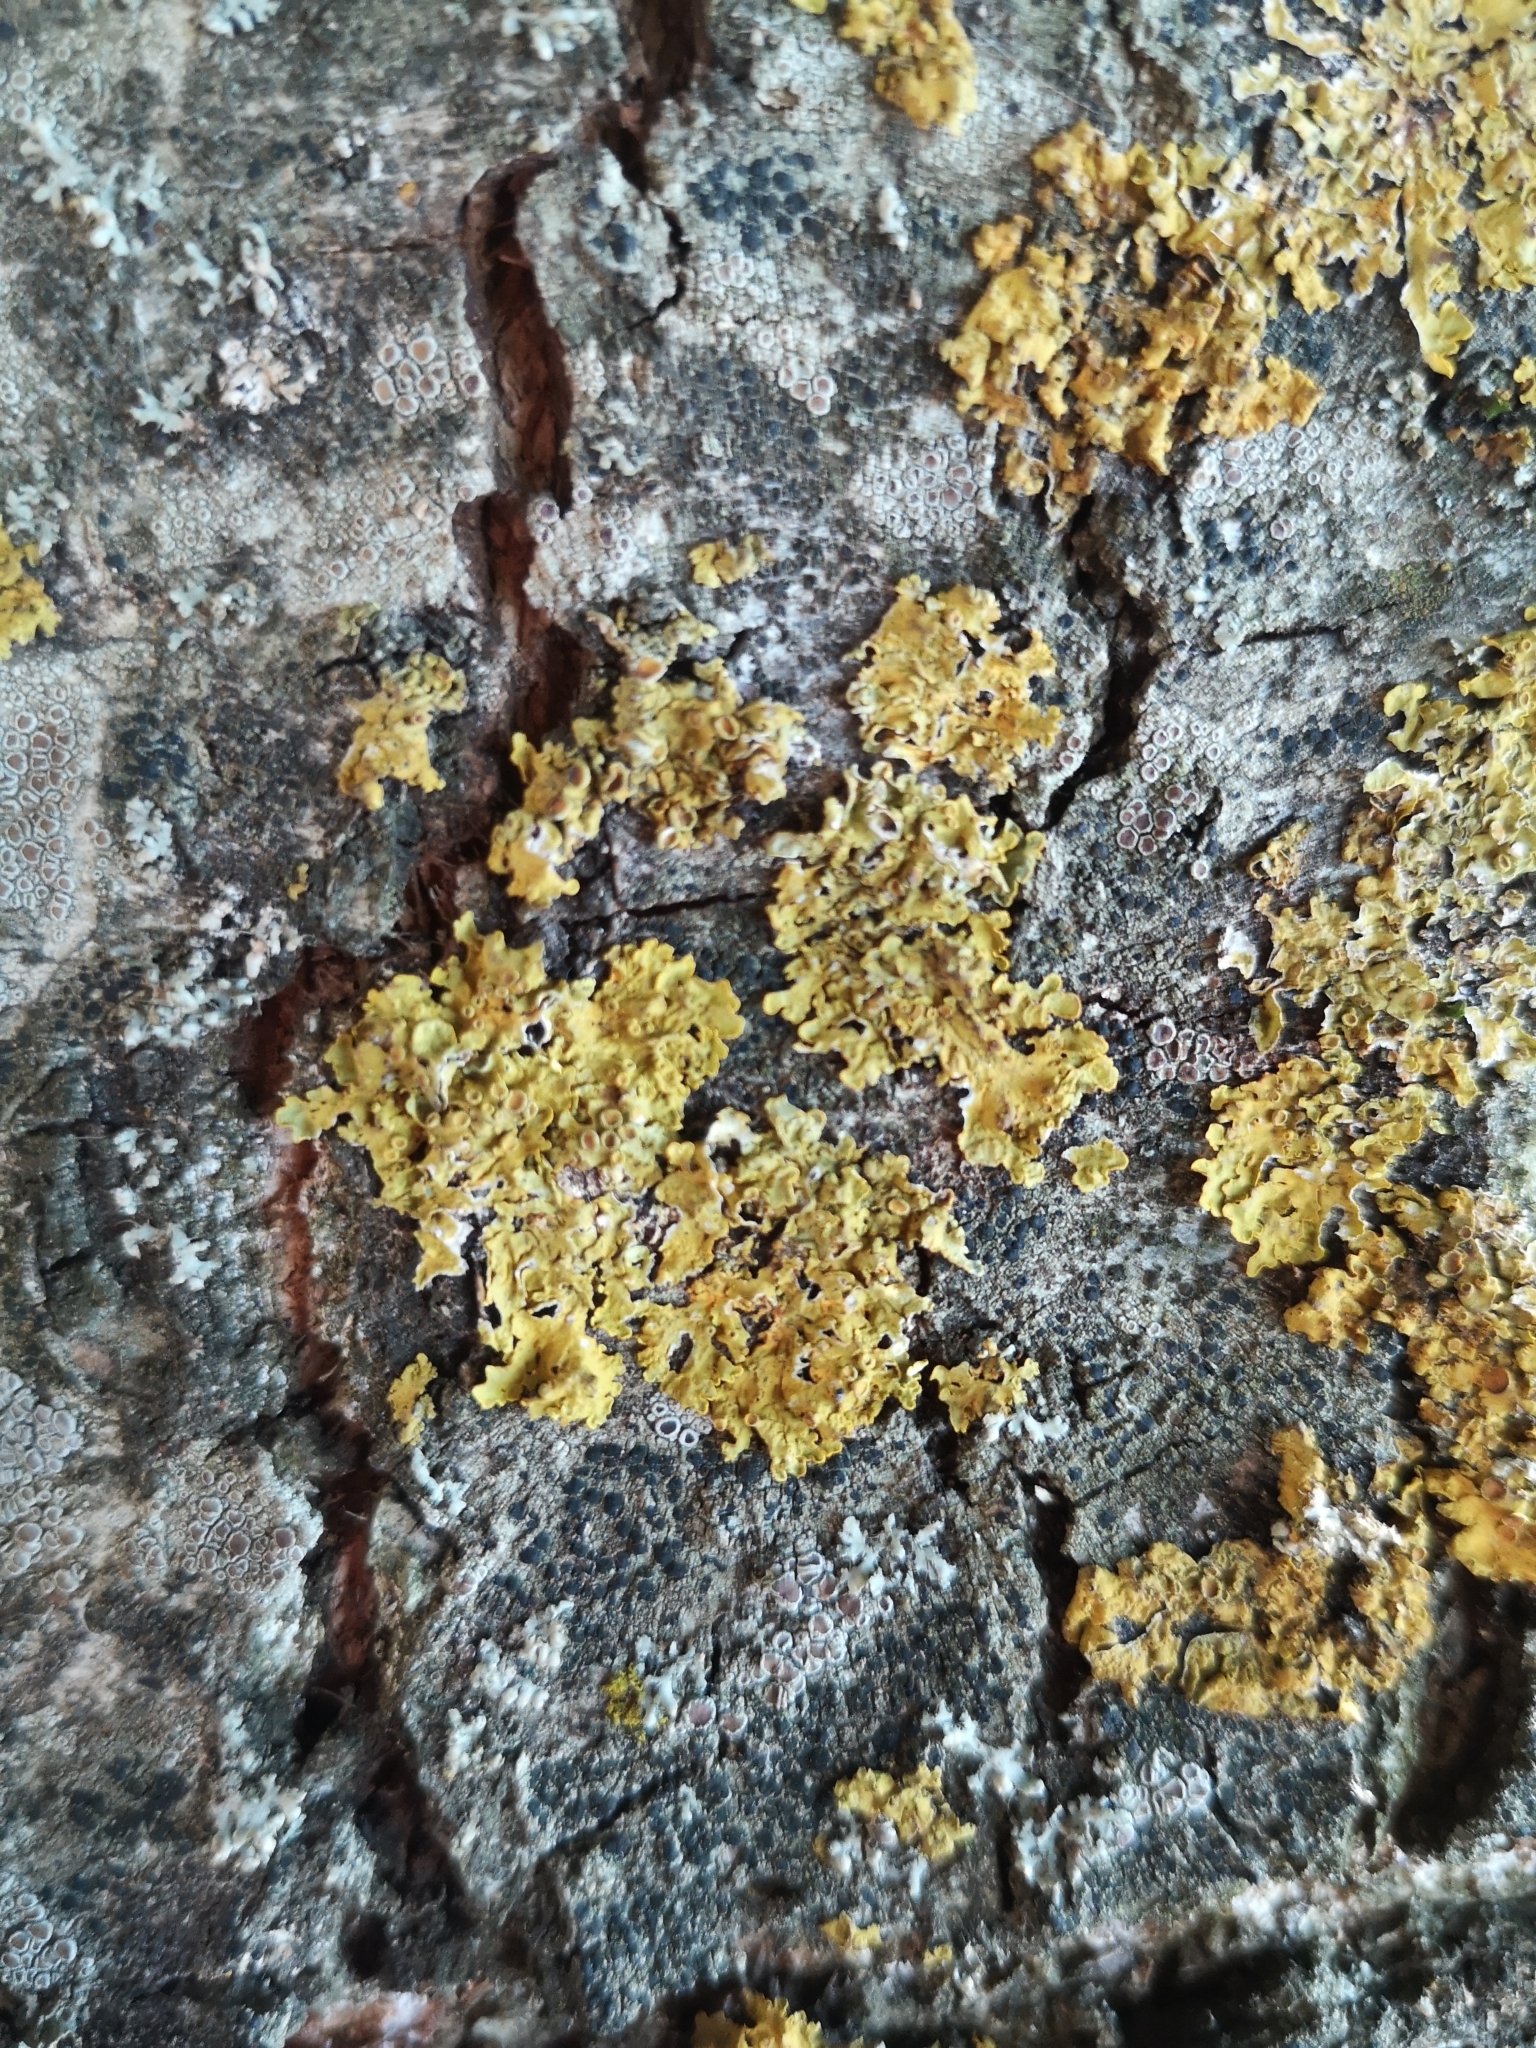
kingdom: Fungi
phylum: Ascomycota
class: Lecanoromycetes
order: Teloschistales
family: Teloschistaceae
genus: Xanthoria
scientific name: Xanthoria parietina
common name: Common orange lichen
